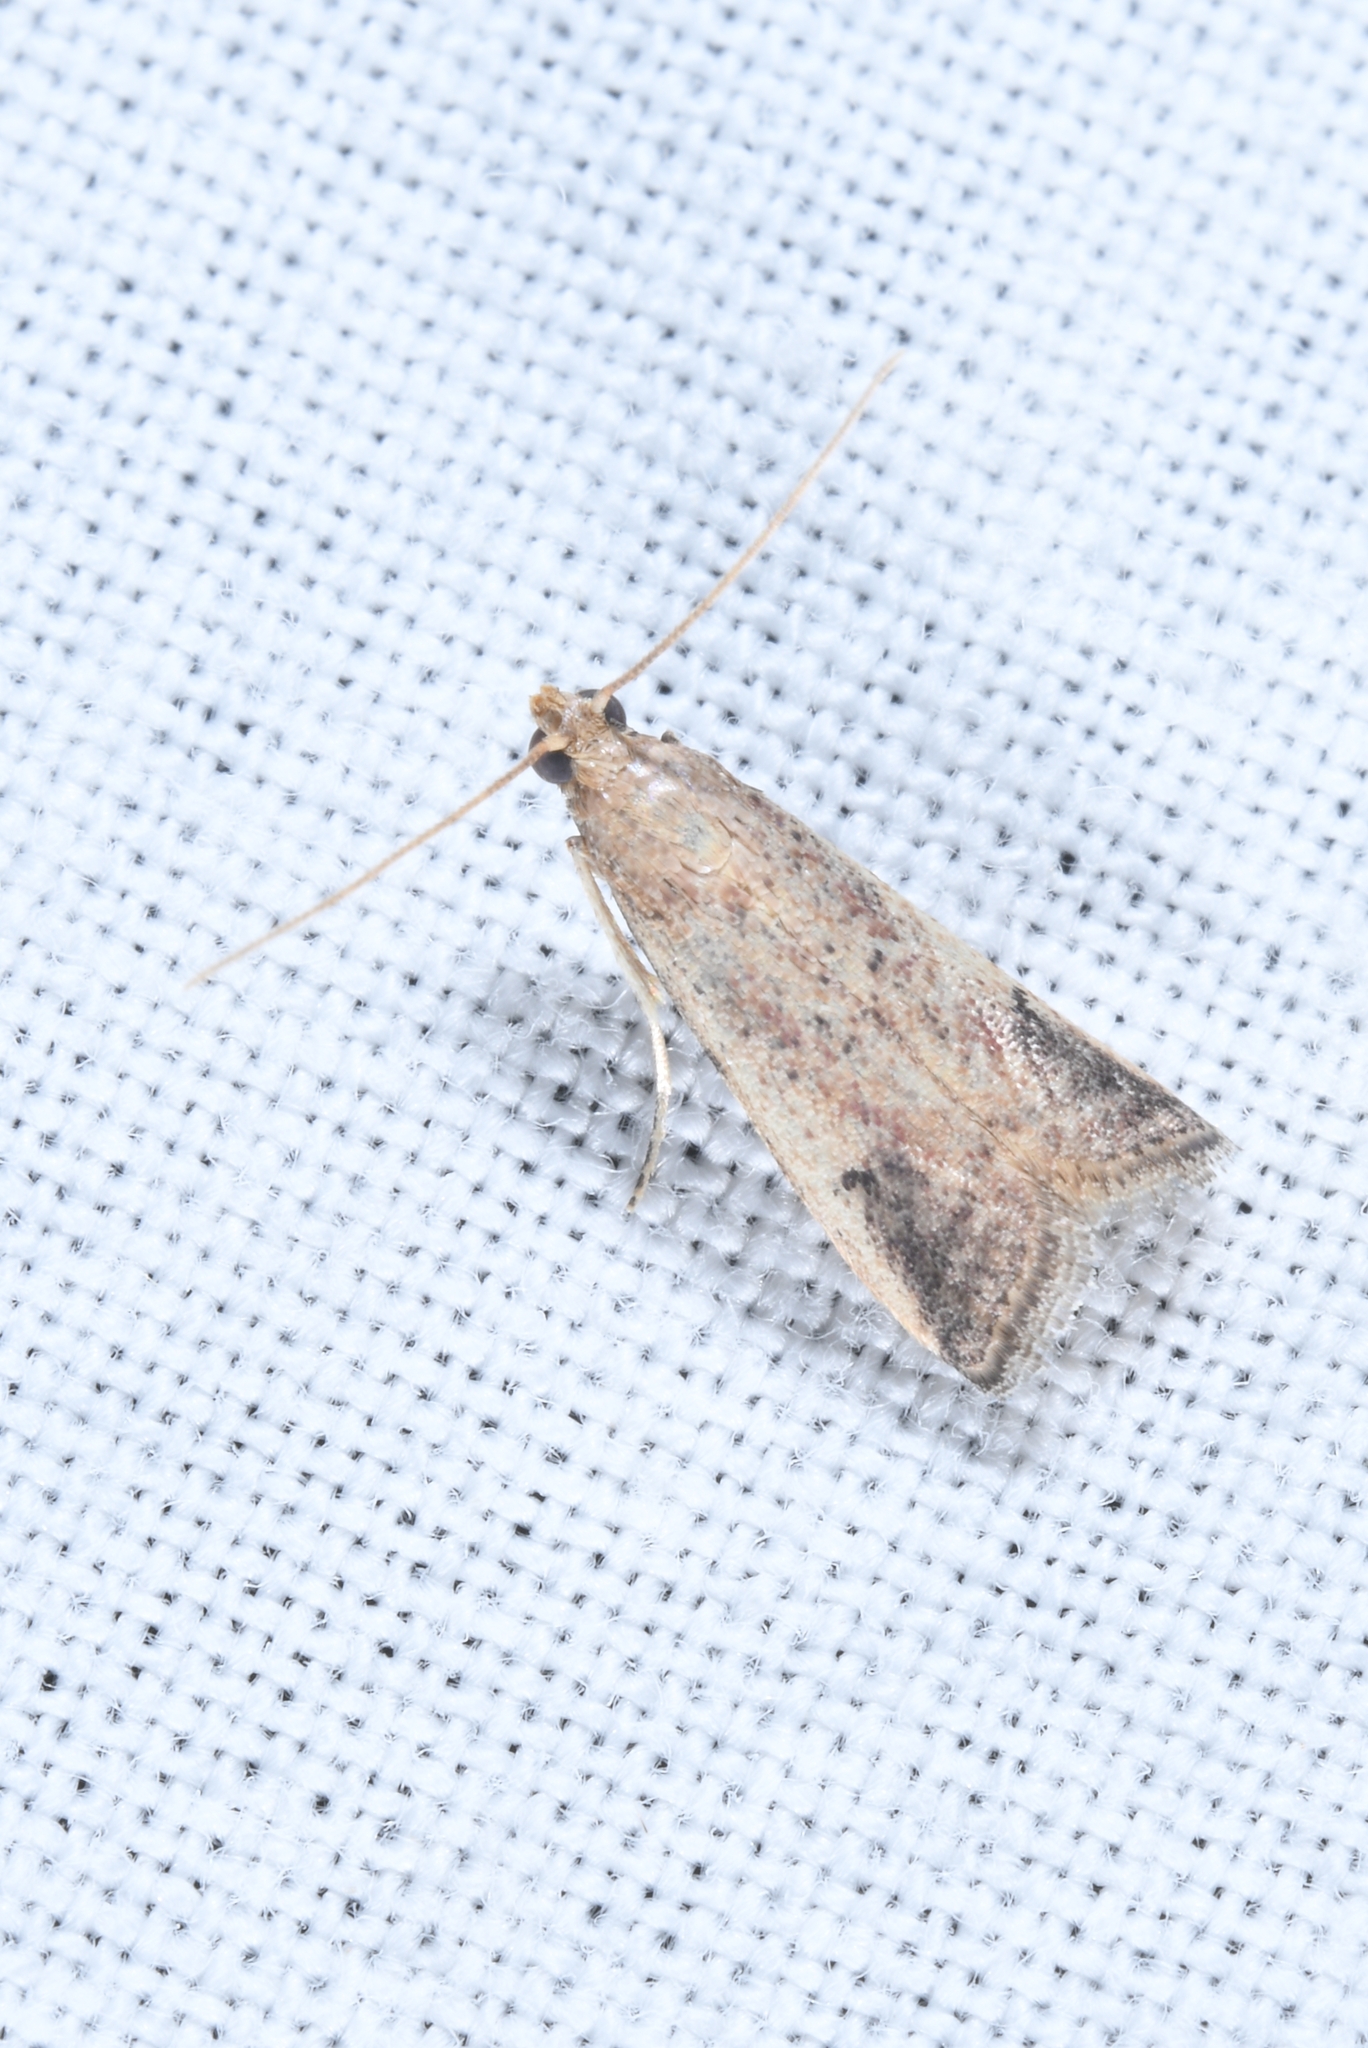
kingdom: Animalia
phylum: Arthropoda
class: Insecta
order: Lepidoptera
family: Pyralidae
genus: Metallostichodes
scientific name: Metallostichodes nigrocyanella
